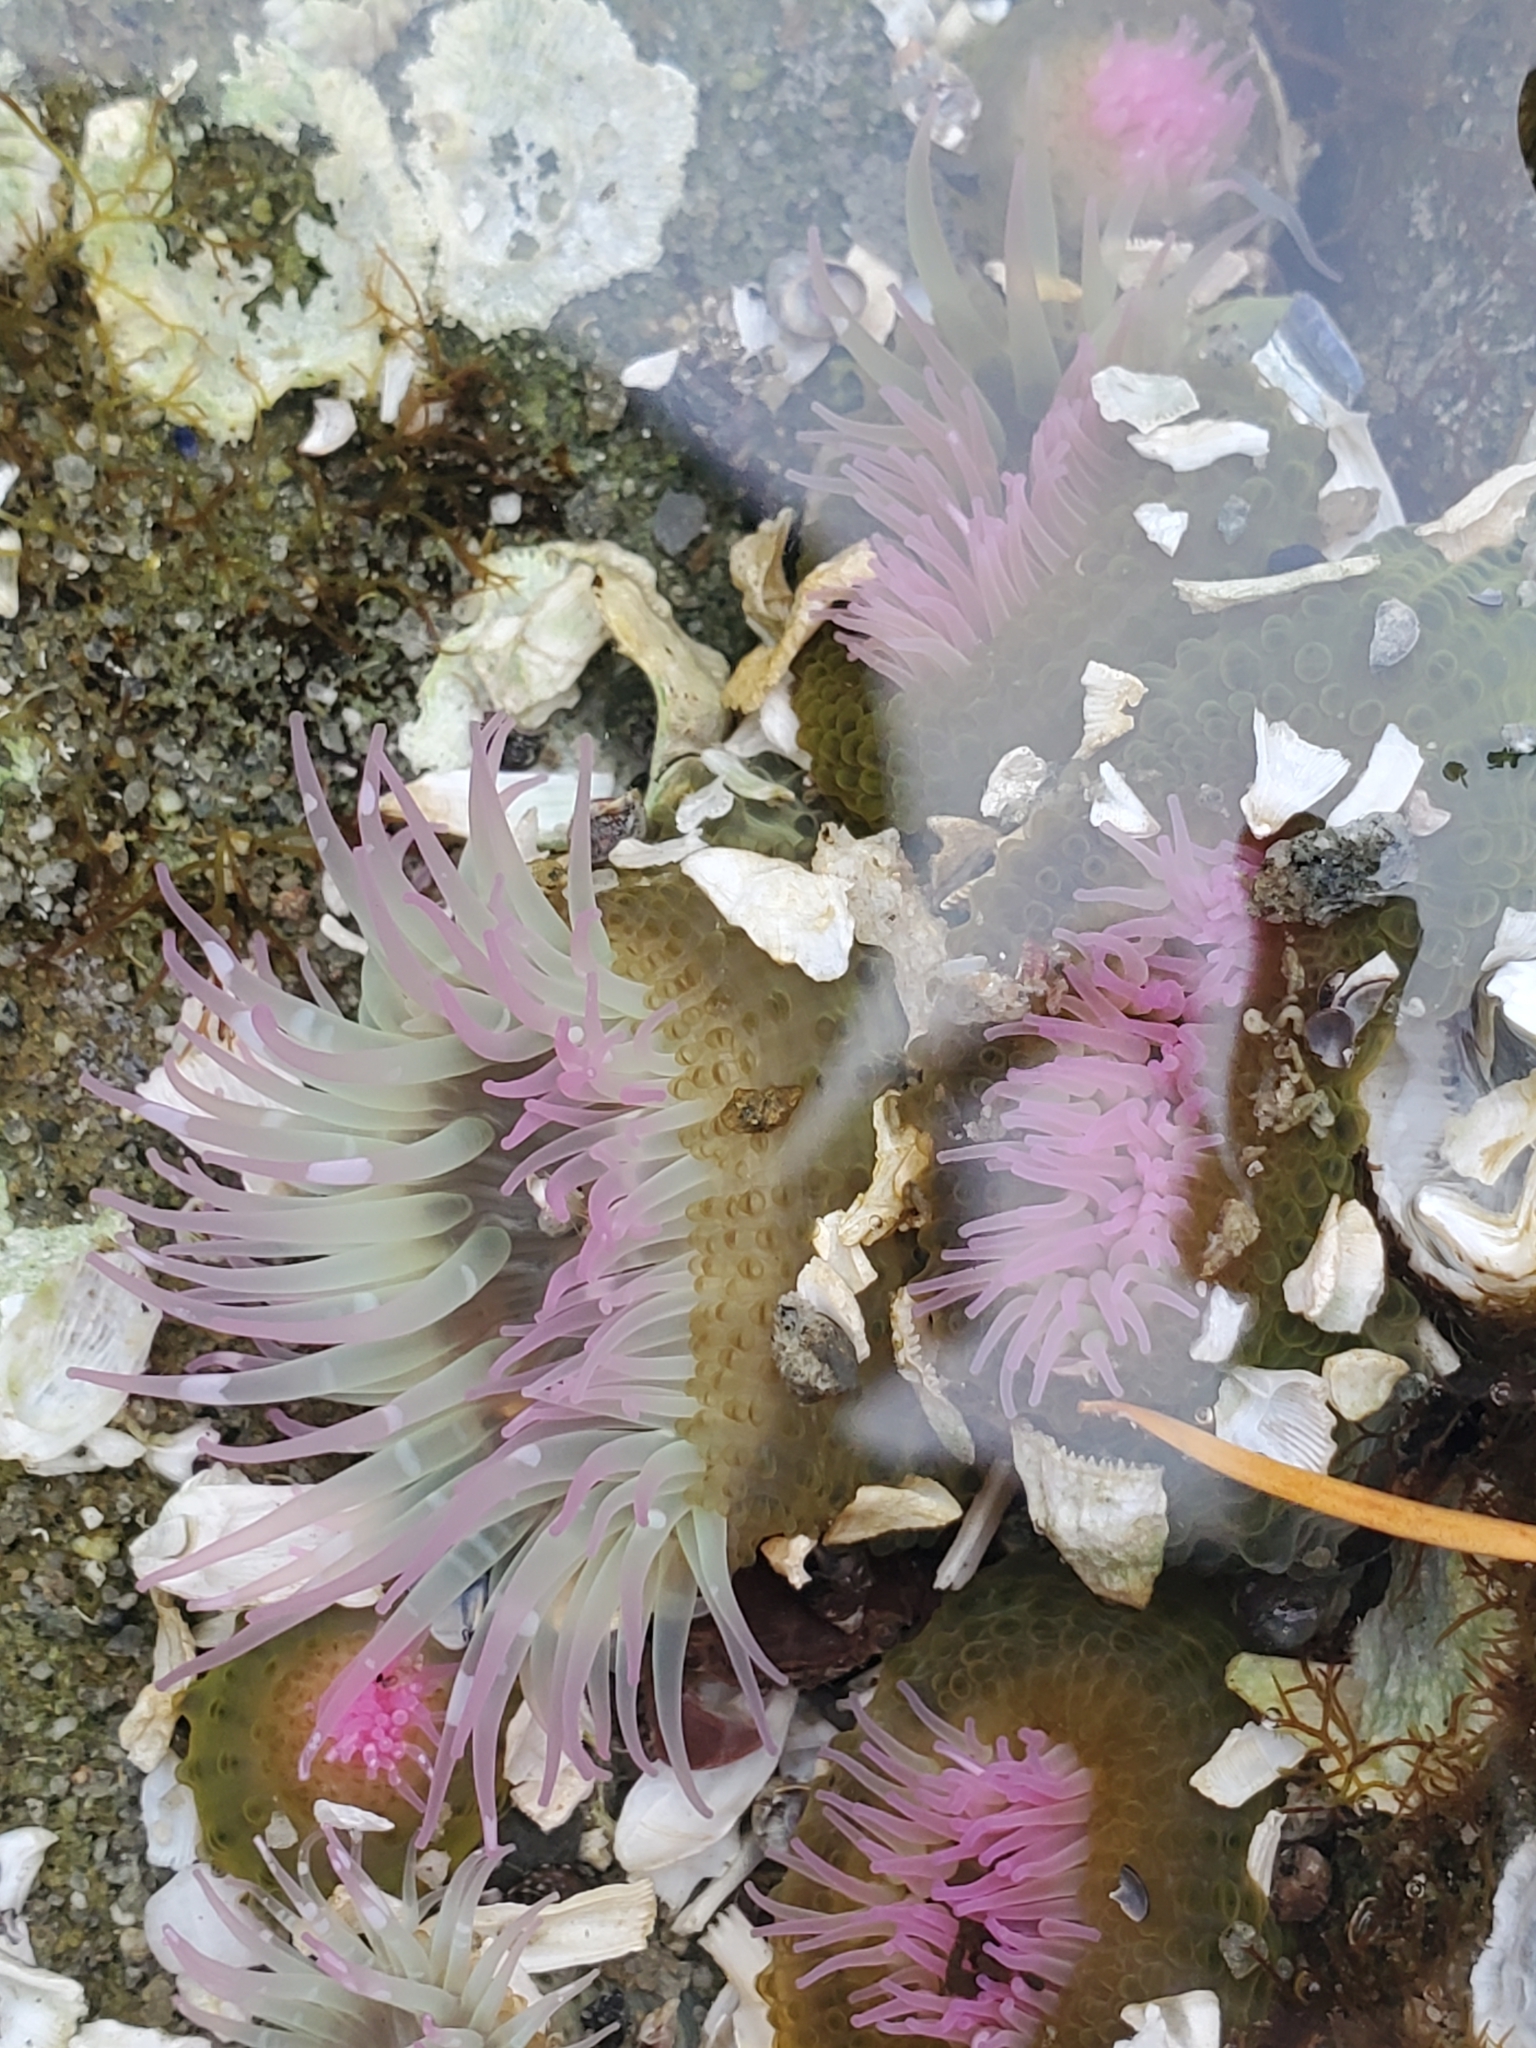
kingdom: Animalia
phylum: Cnidaria
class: Anthozoa
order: Actiniaria
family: Actiniidae
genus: Anthopleura
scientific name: Anthopleura elegantissima
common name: Clonal anemone
